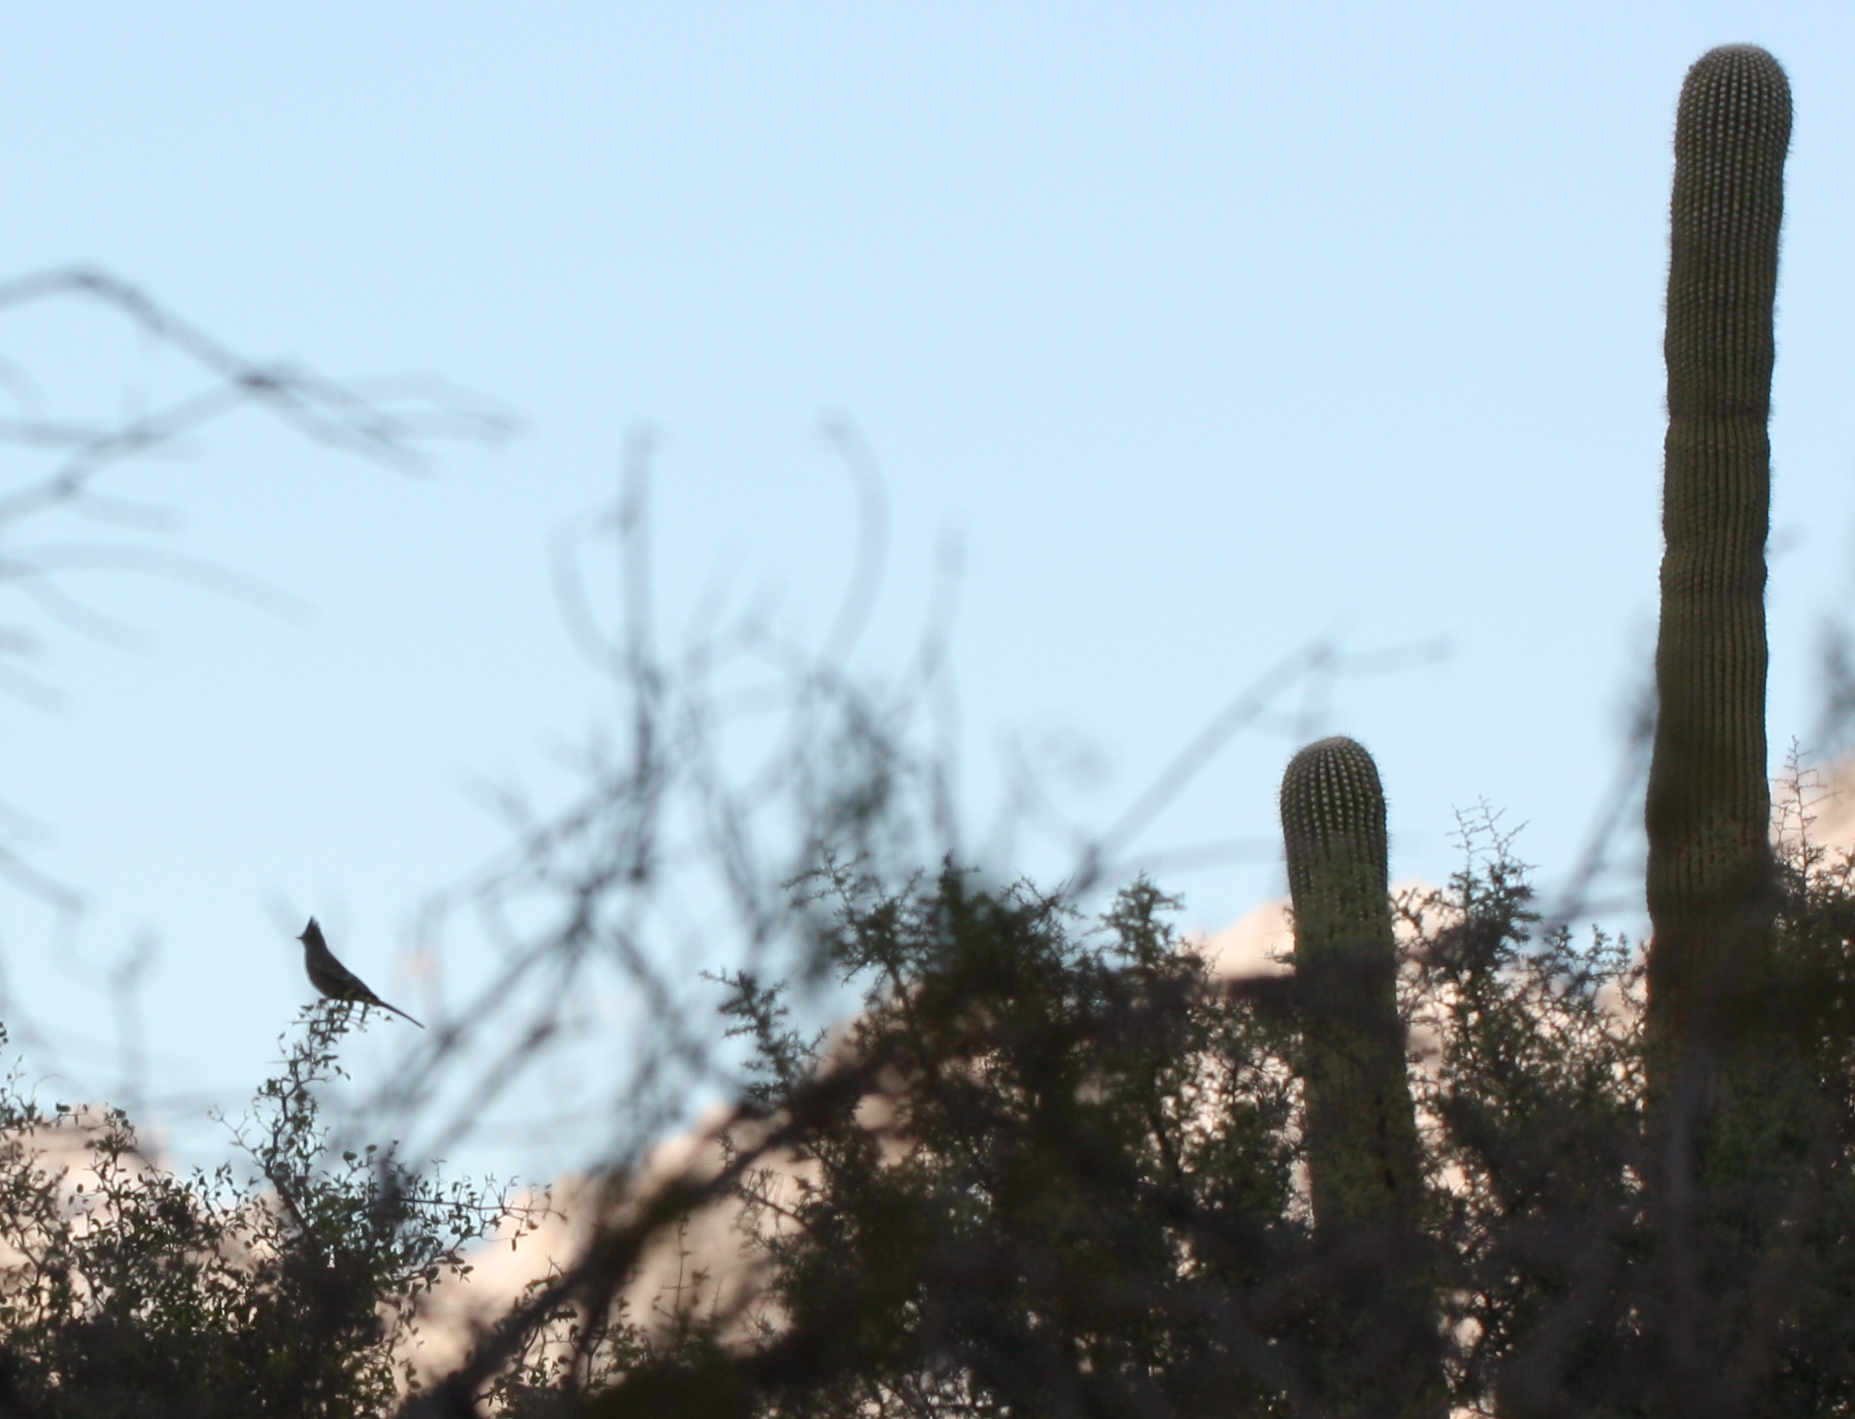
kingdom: Animalia
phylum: Chordata
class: Aves
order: Passeriformes
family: Ptilogonatidae
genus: Phainopepla
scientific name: Phainopepla nitens
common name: Phainopepla
